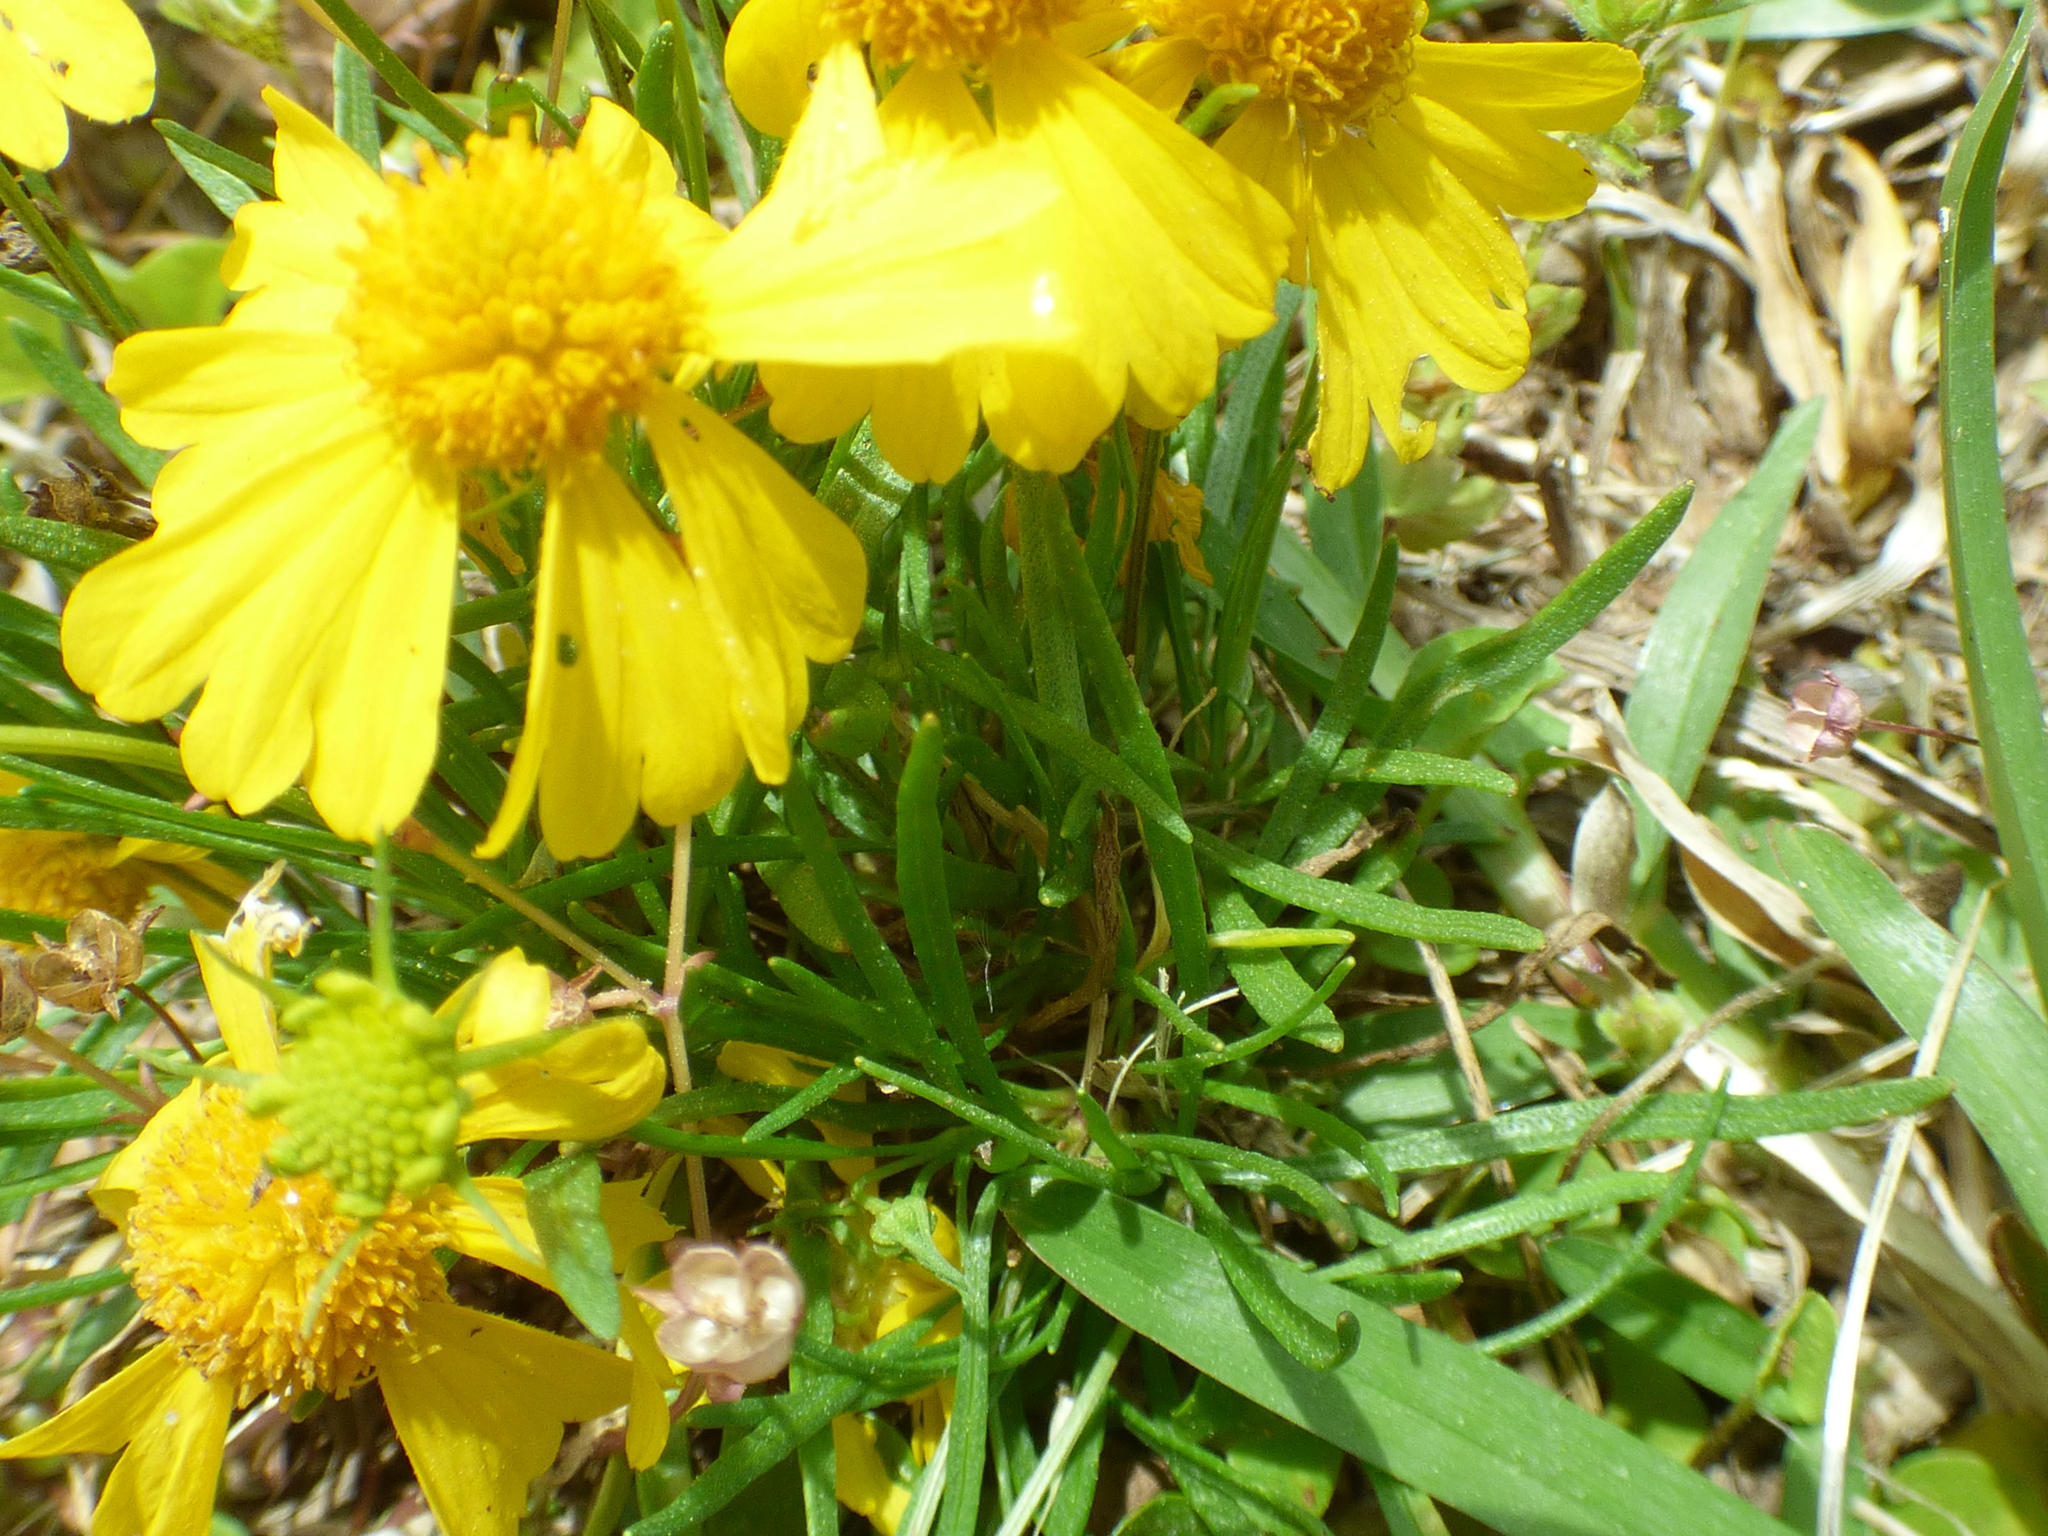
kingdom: Plantae
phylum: Tracheophyta
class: Magnoliopsida
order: Asterales
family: Asteraceae
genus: Helenium
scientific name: Helenium amarum
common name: Bitter sneezeweed
